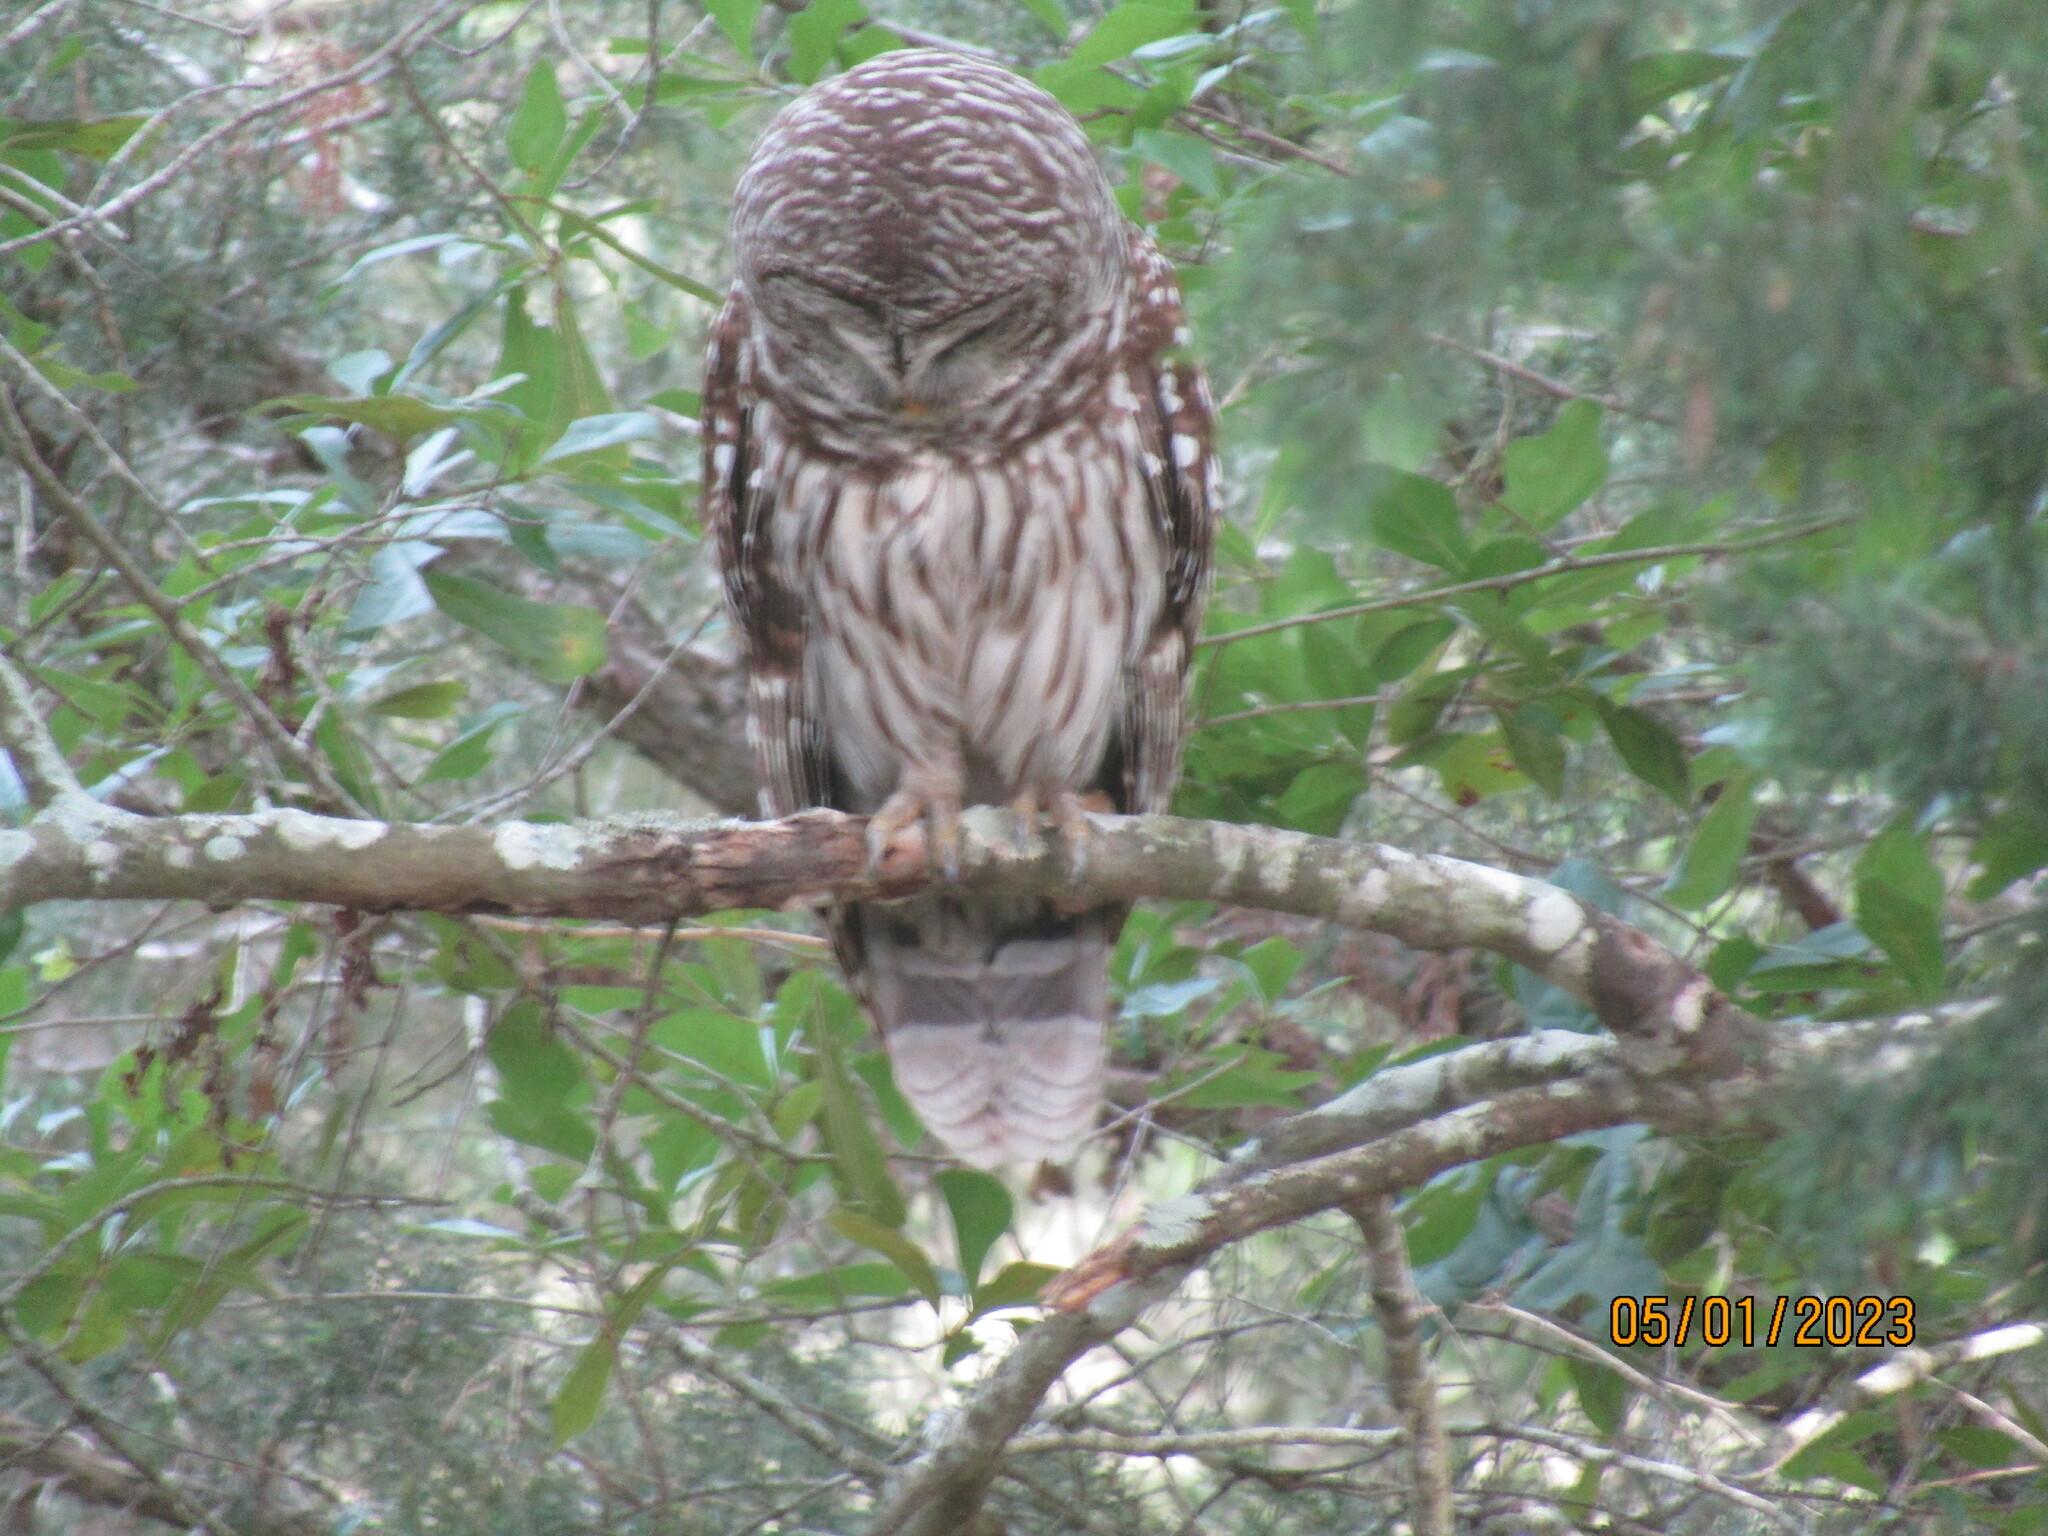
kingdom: Animalia
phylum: Chordata
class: Aves
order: Strigiformes
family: Strigidae
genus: Strix
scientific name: Strix varia
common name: Barred owl
